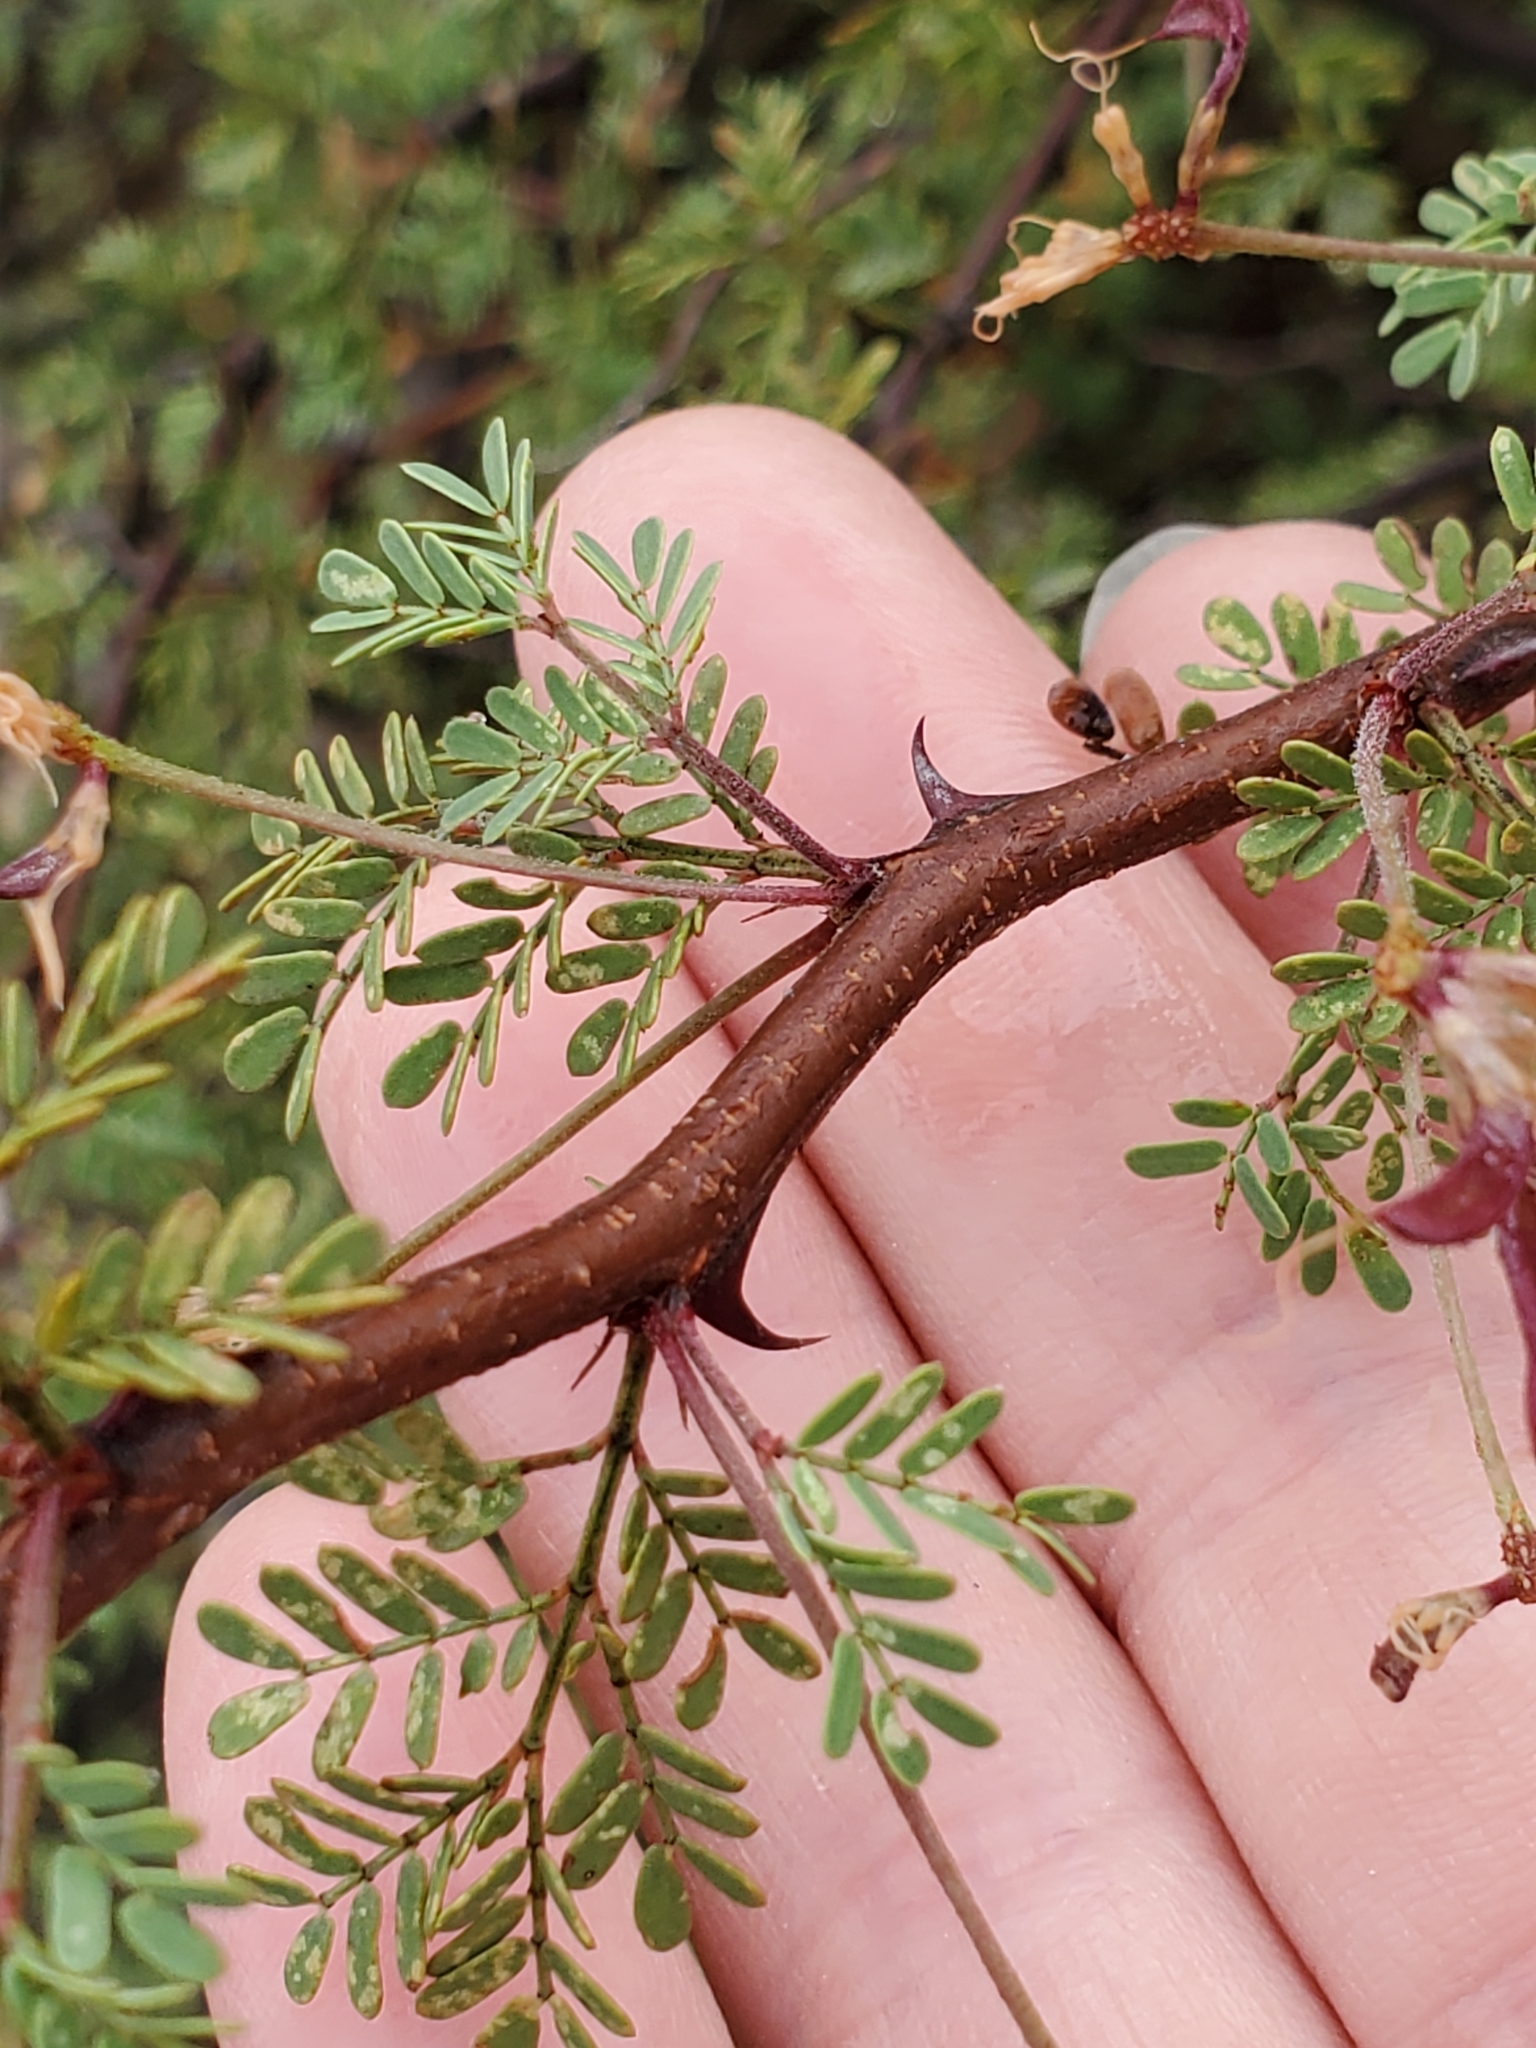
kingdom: Plantae
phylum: Tracheophyta
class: Magnoliopsida
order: Fabales
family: Fabaceae
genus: Mimosa
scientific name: Mimosa texana
